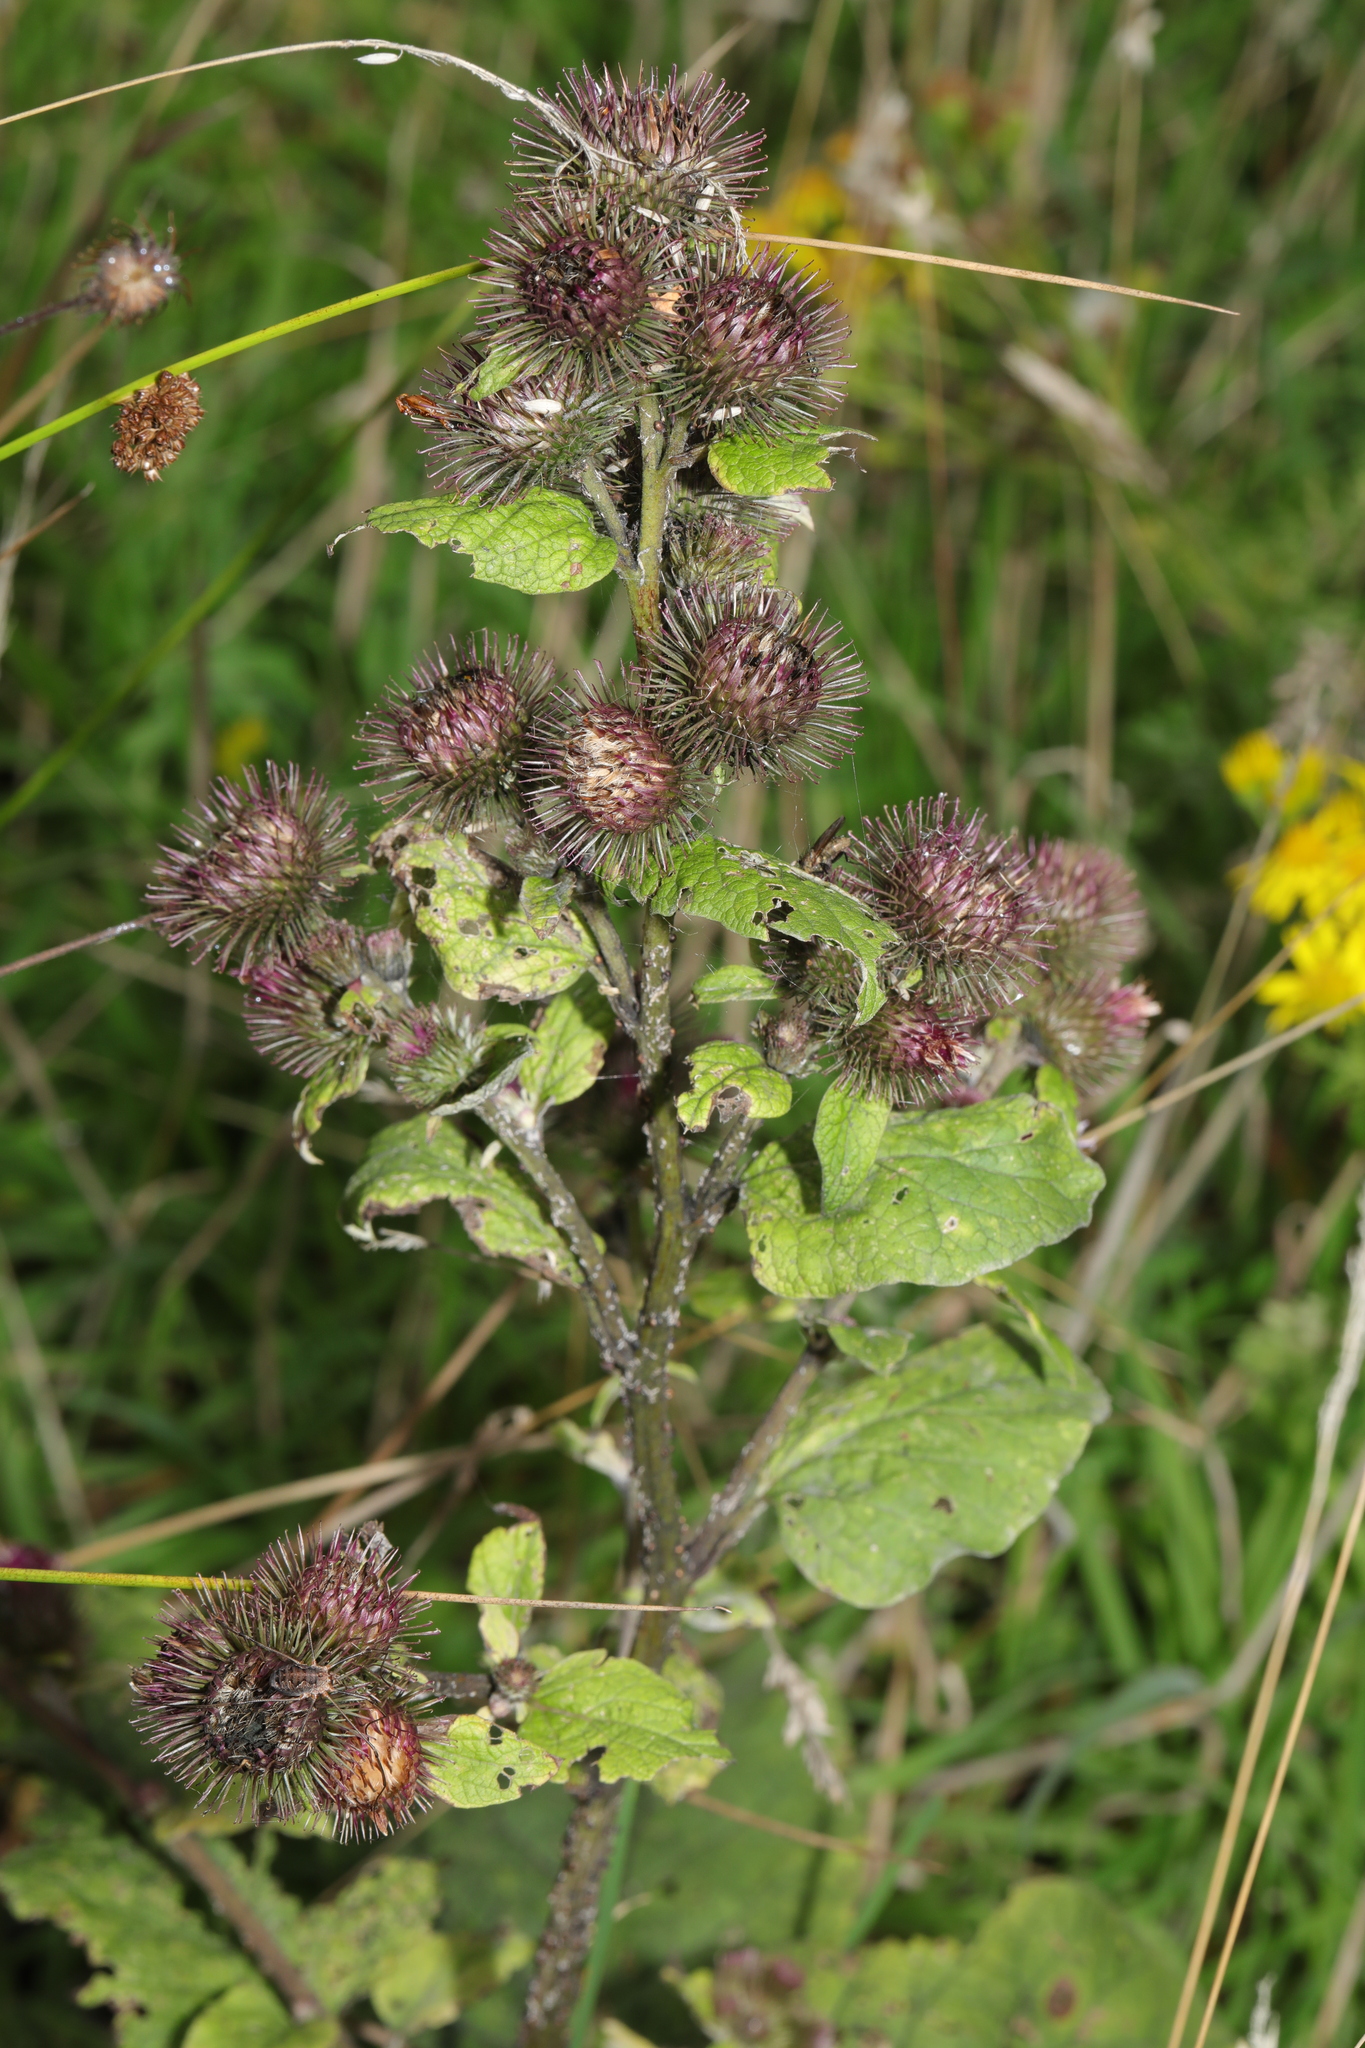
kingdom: Plantae
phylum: Tracheophyta
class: Magnoliopsida
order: Asterales
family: Asteraceae
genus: Arctium
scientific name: Arctium minus
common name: Lesser burdock
